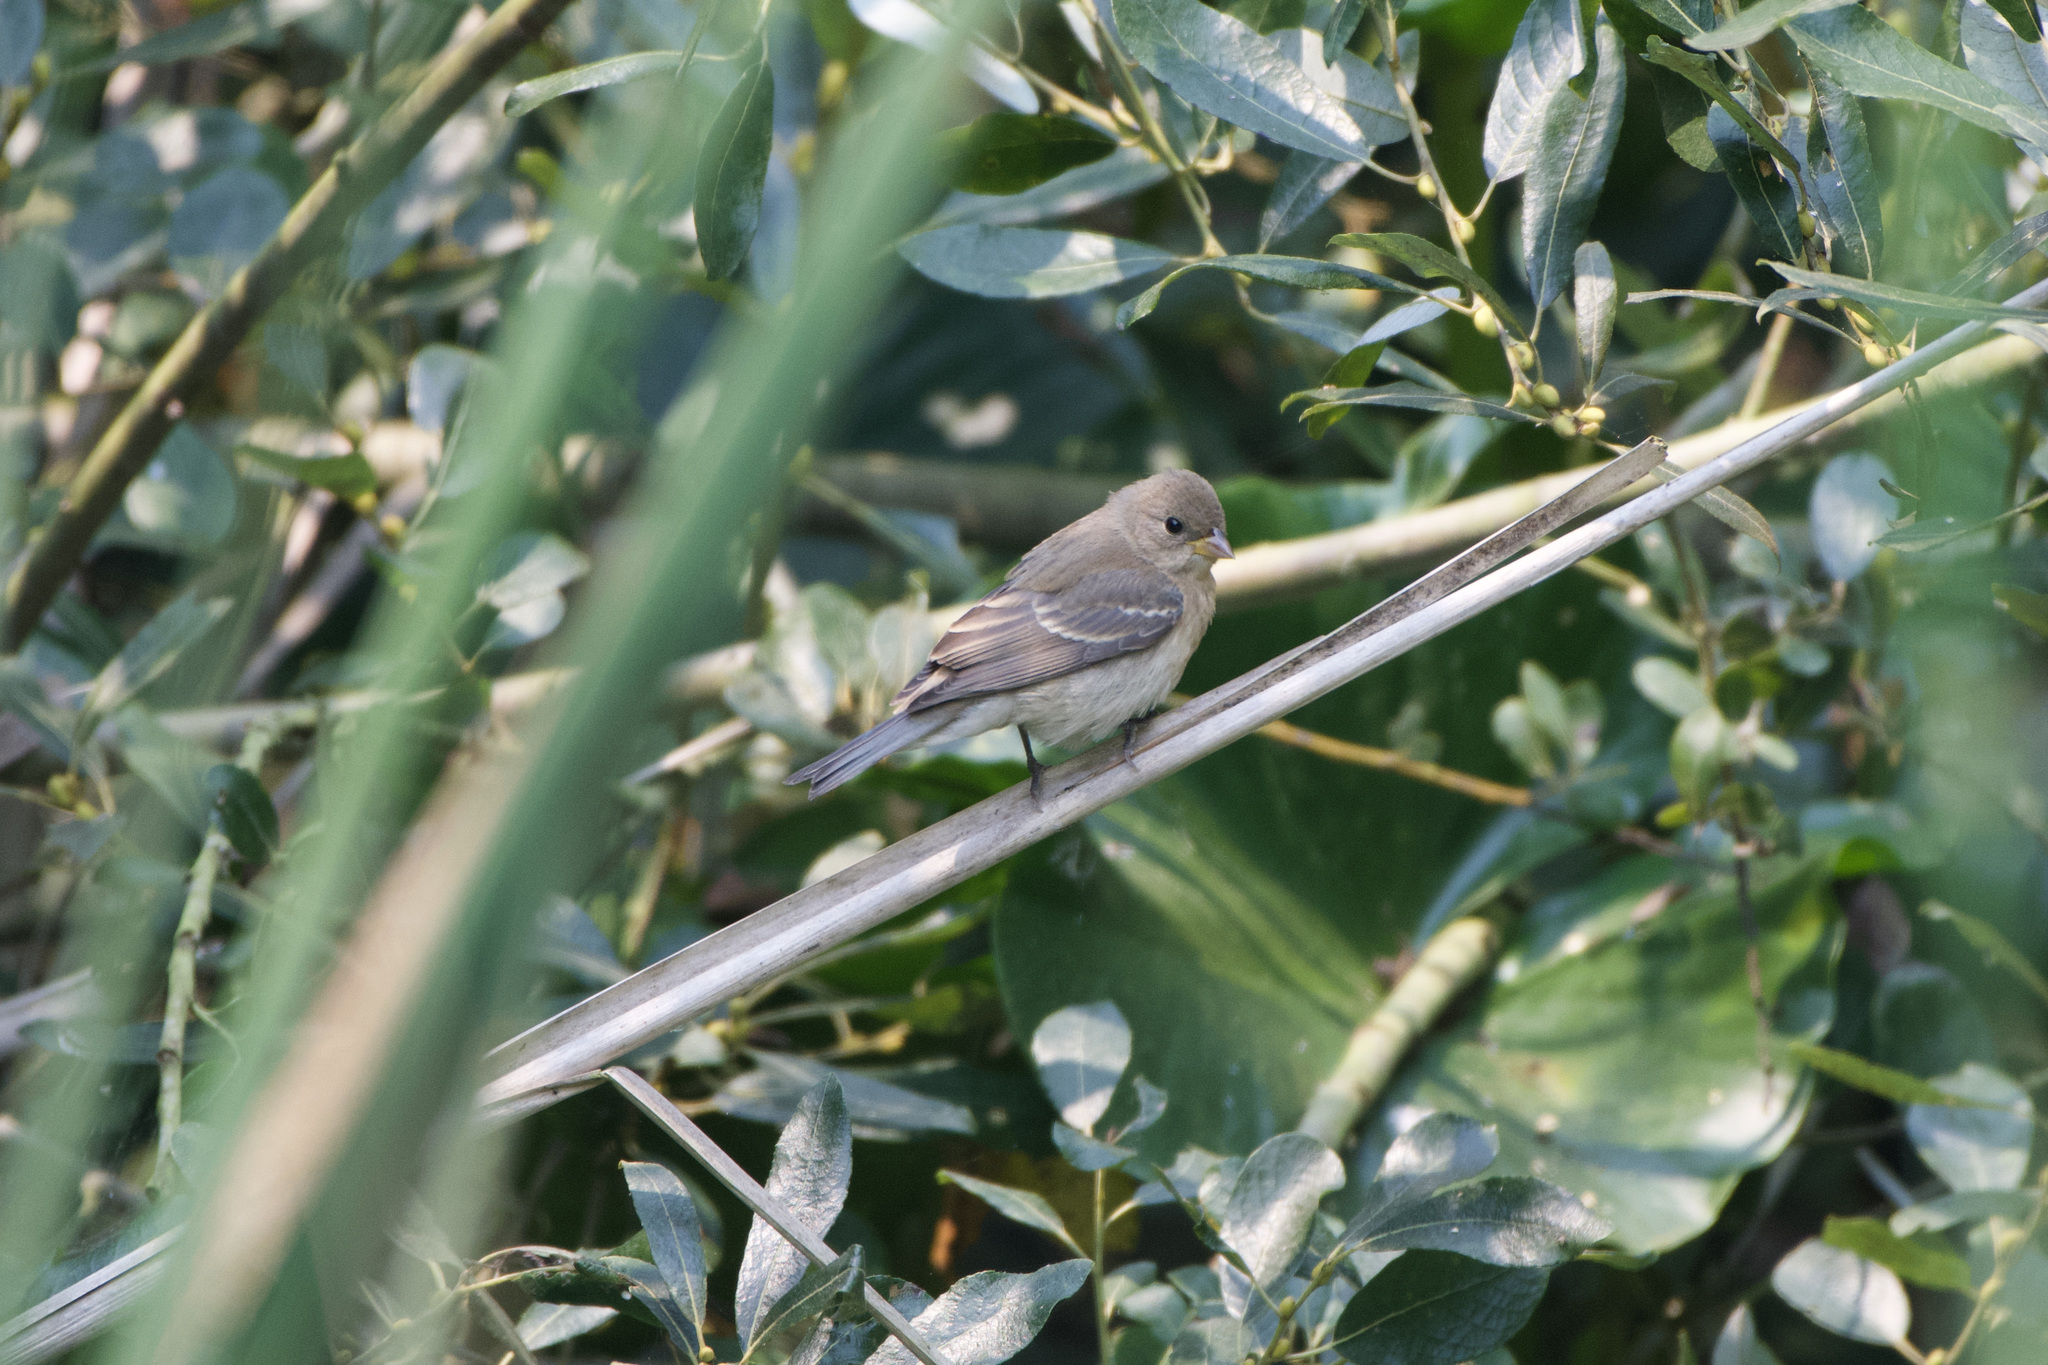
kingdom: Animalia
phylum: Chordata
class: Aves
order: Passeriformes
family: Cardinalidae
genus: Passerina
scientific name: Passerina amoena
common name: Lazuli bunting
